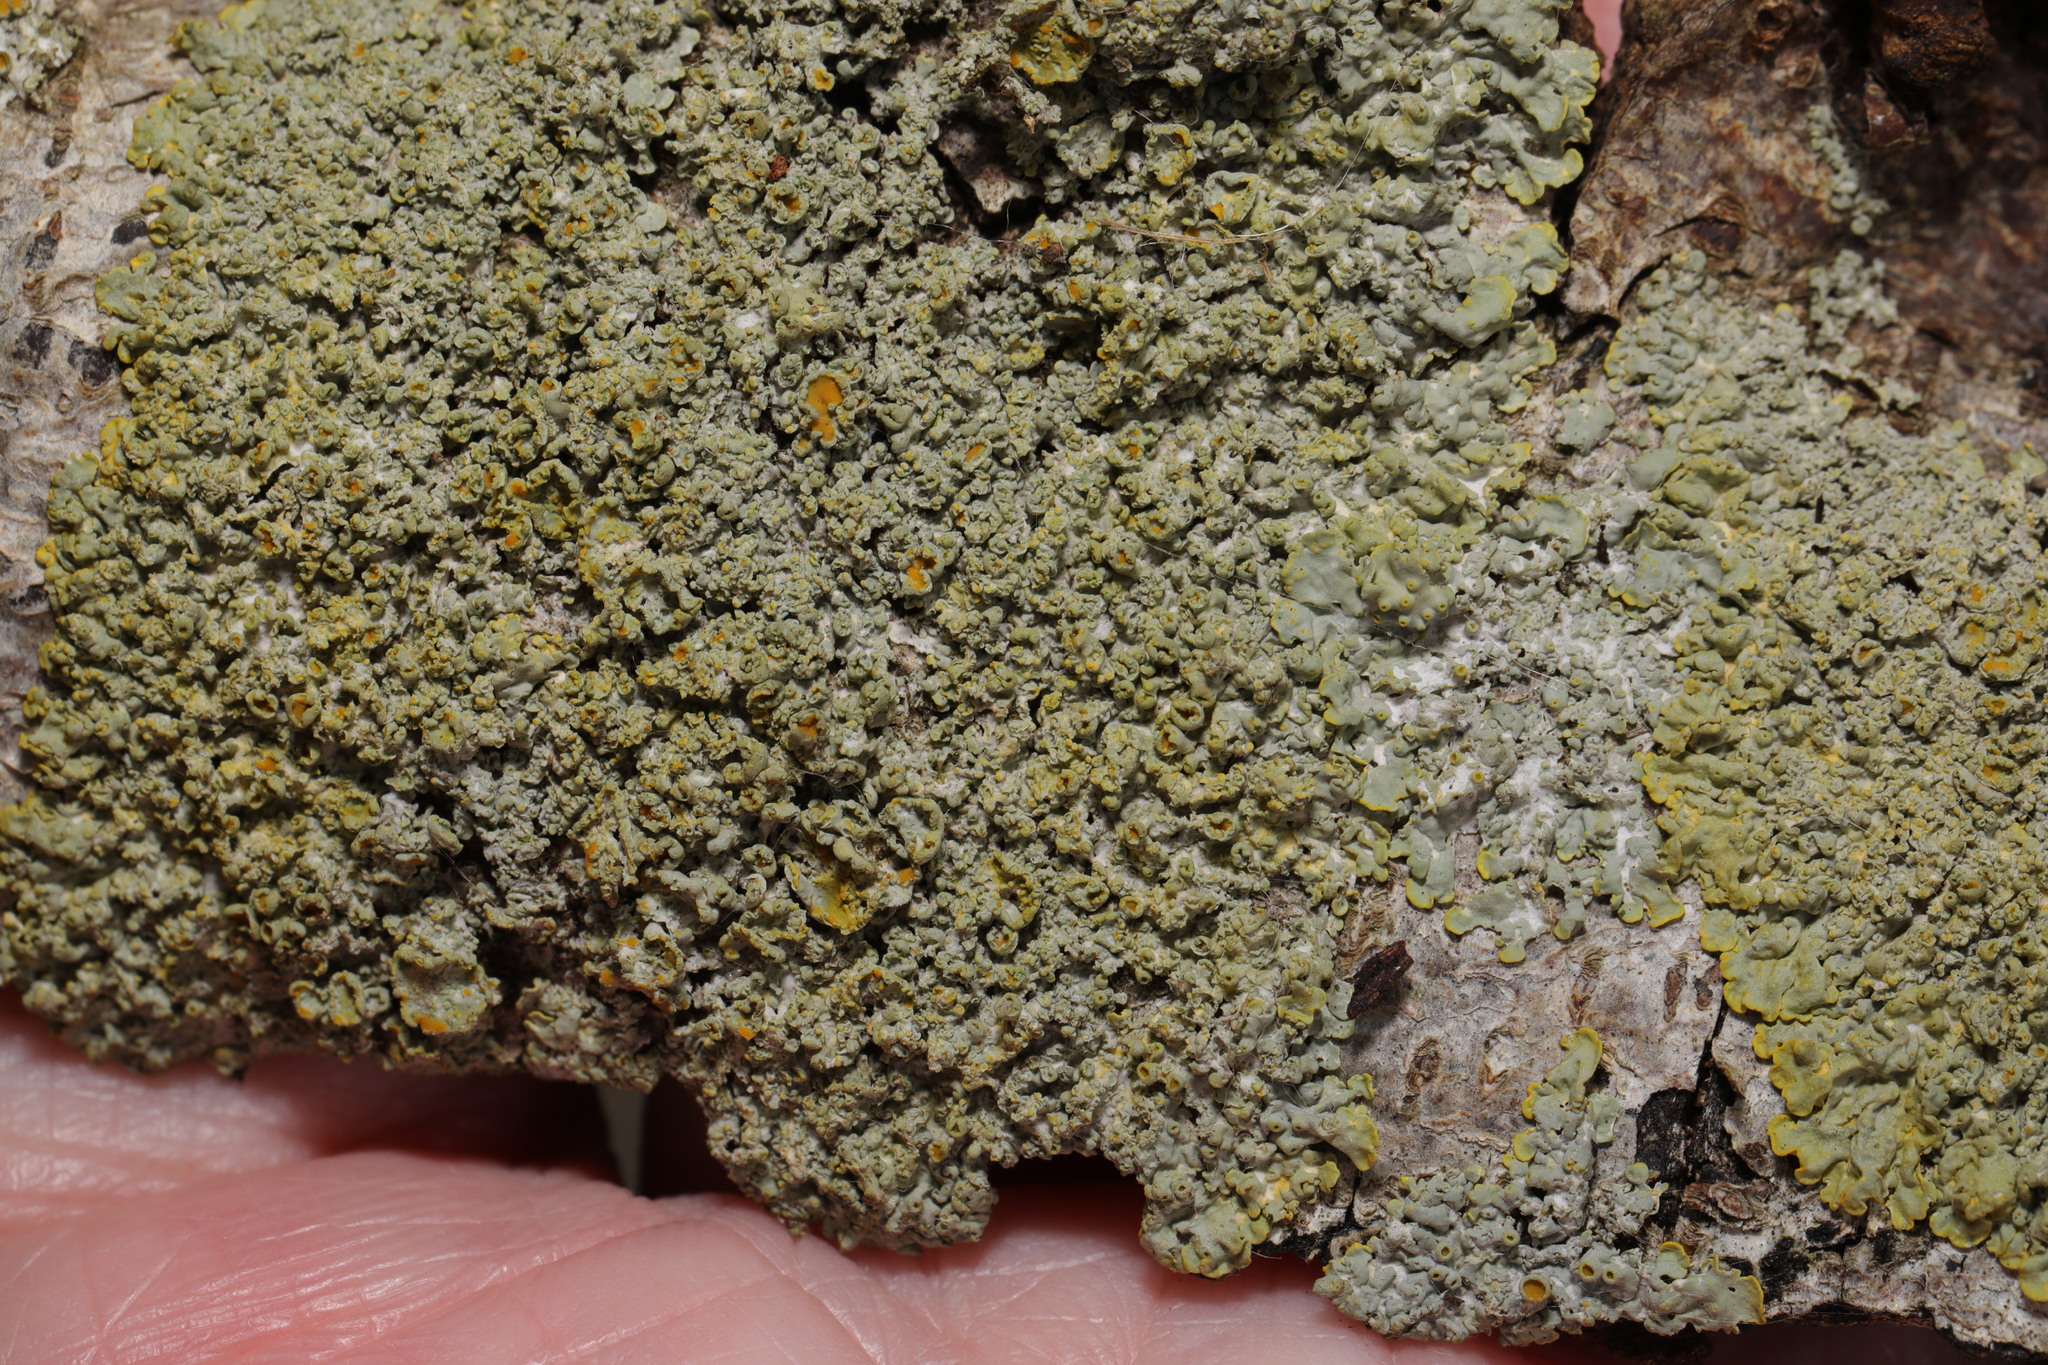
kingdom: Fungi
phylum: Ascomycota
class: Lecanoromycetes
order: Teloschistales
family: Teloschistaceae
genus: Xanthoria
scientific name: Xanthoria parietina
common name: Common orange lichen
